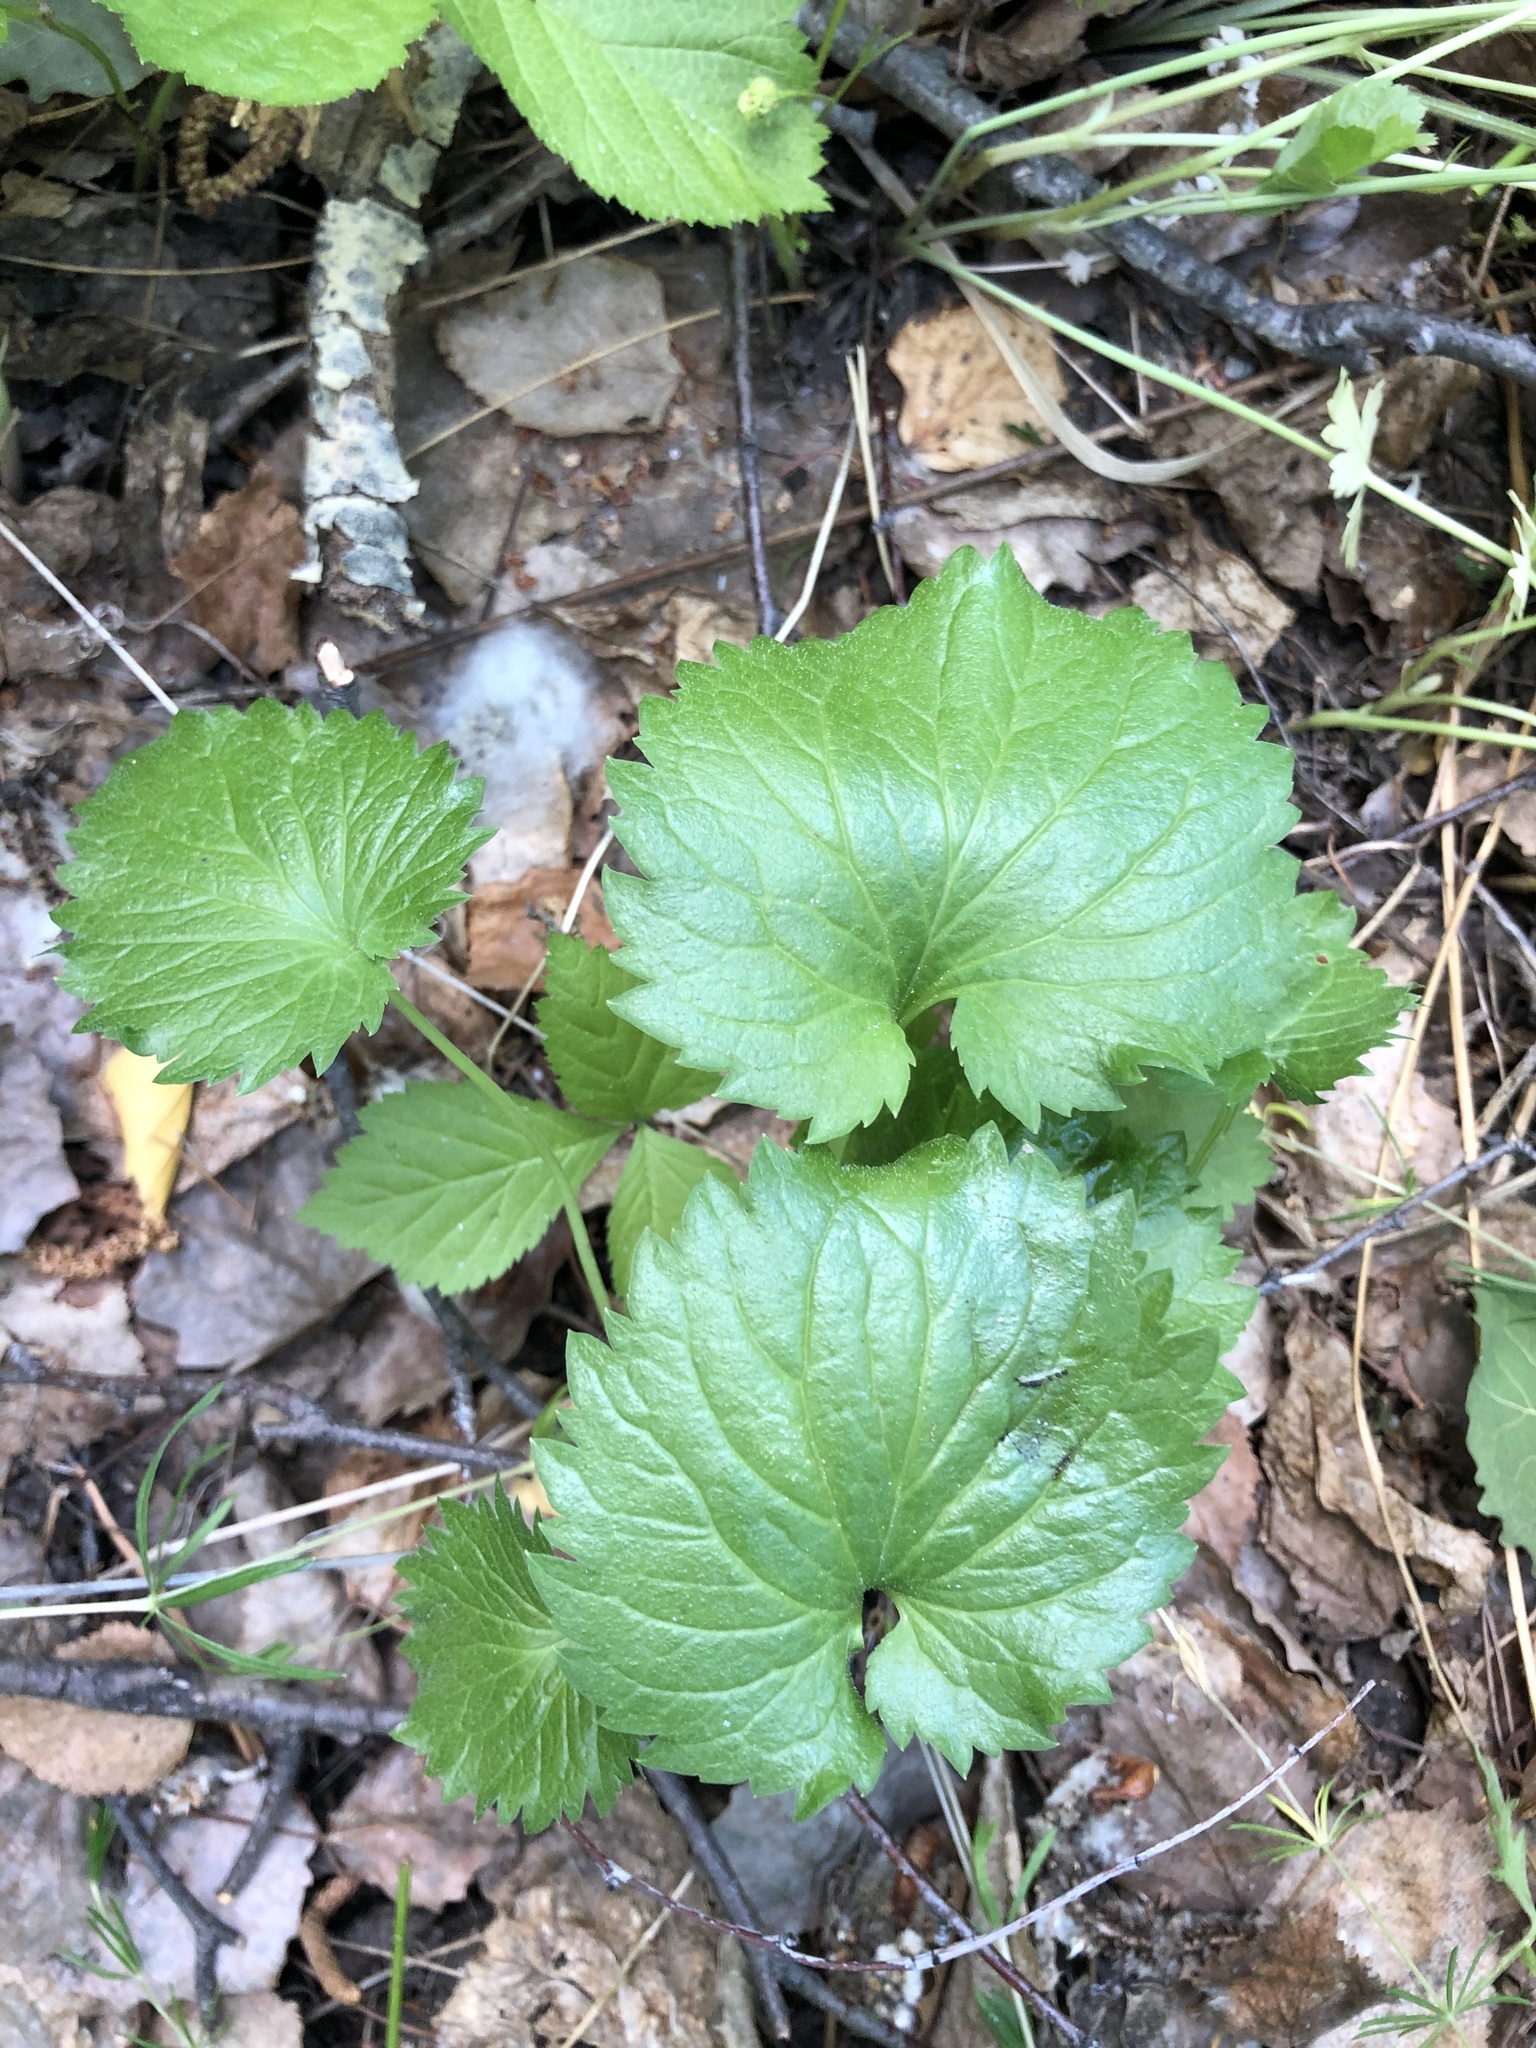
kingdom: Plantae
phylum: Tracheophyta
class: Magnoliopsida
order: Asterales
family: Campanulaceae
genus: Campanula
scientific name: Campanula trachelium
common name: Nettle-leaved bellflower
